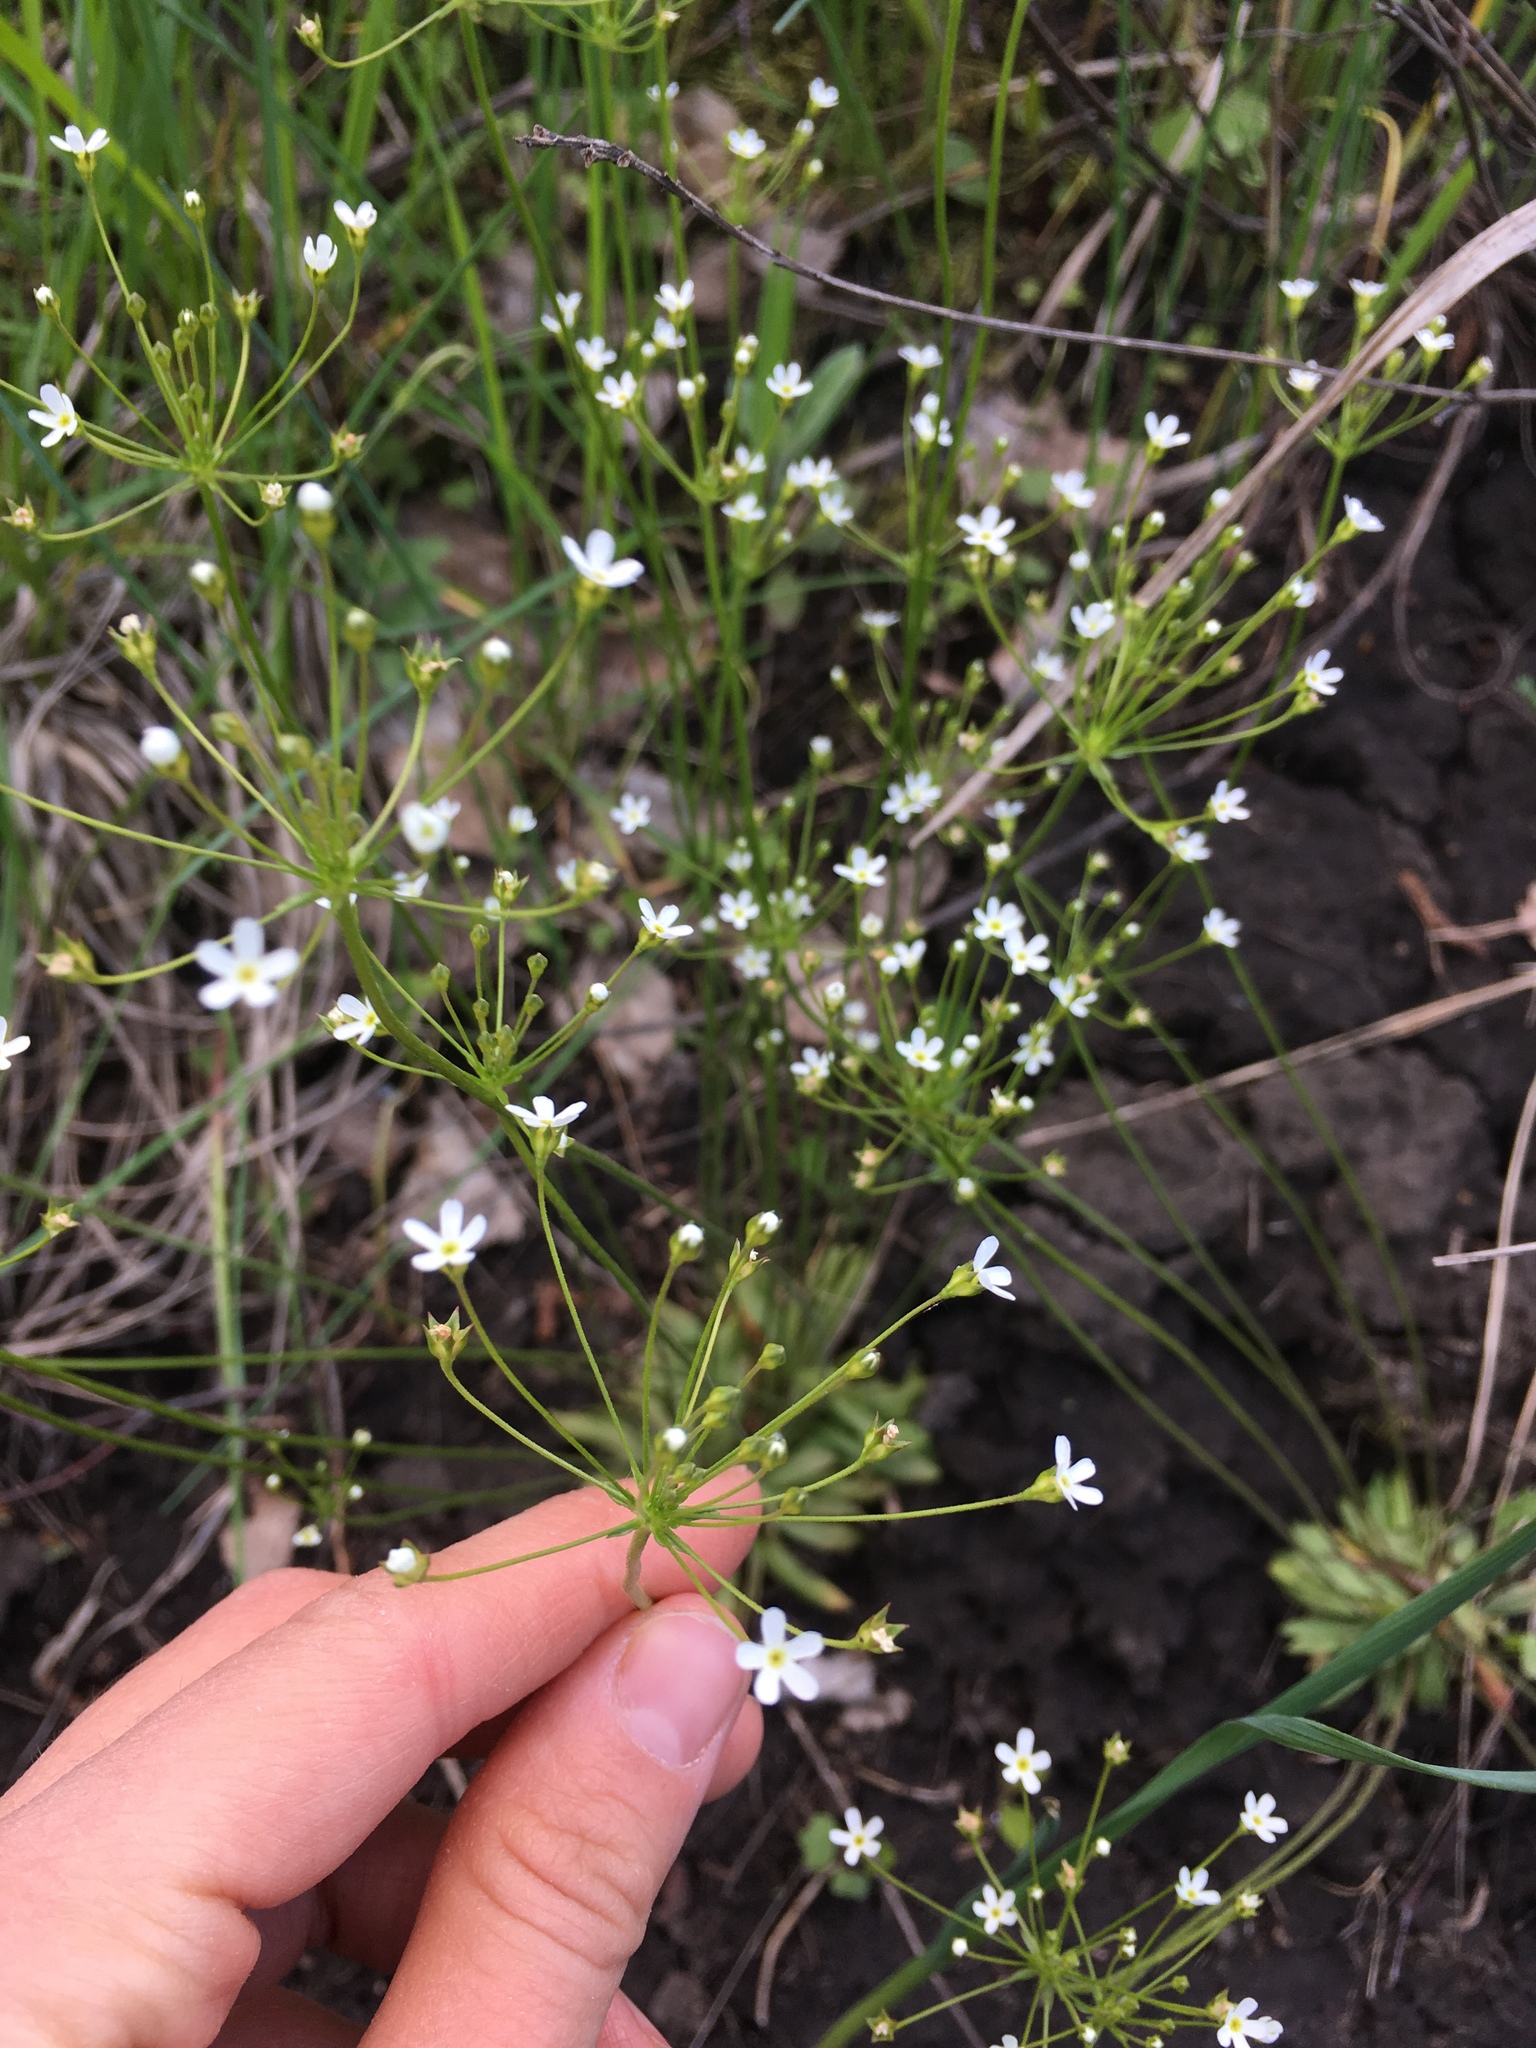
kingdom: Plantae
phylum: Tracheophyta
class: Magnoliopsida
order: Ericales
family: Primulaceae
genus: Androsace
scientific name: Androsace septentrionalis
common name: Hairy northern fairy-candelabra
